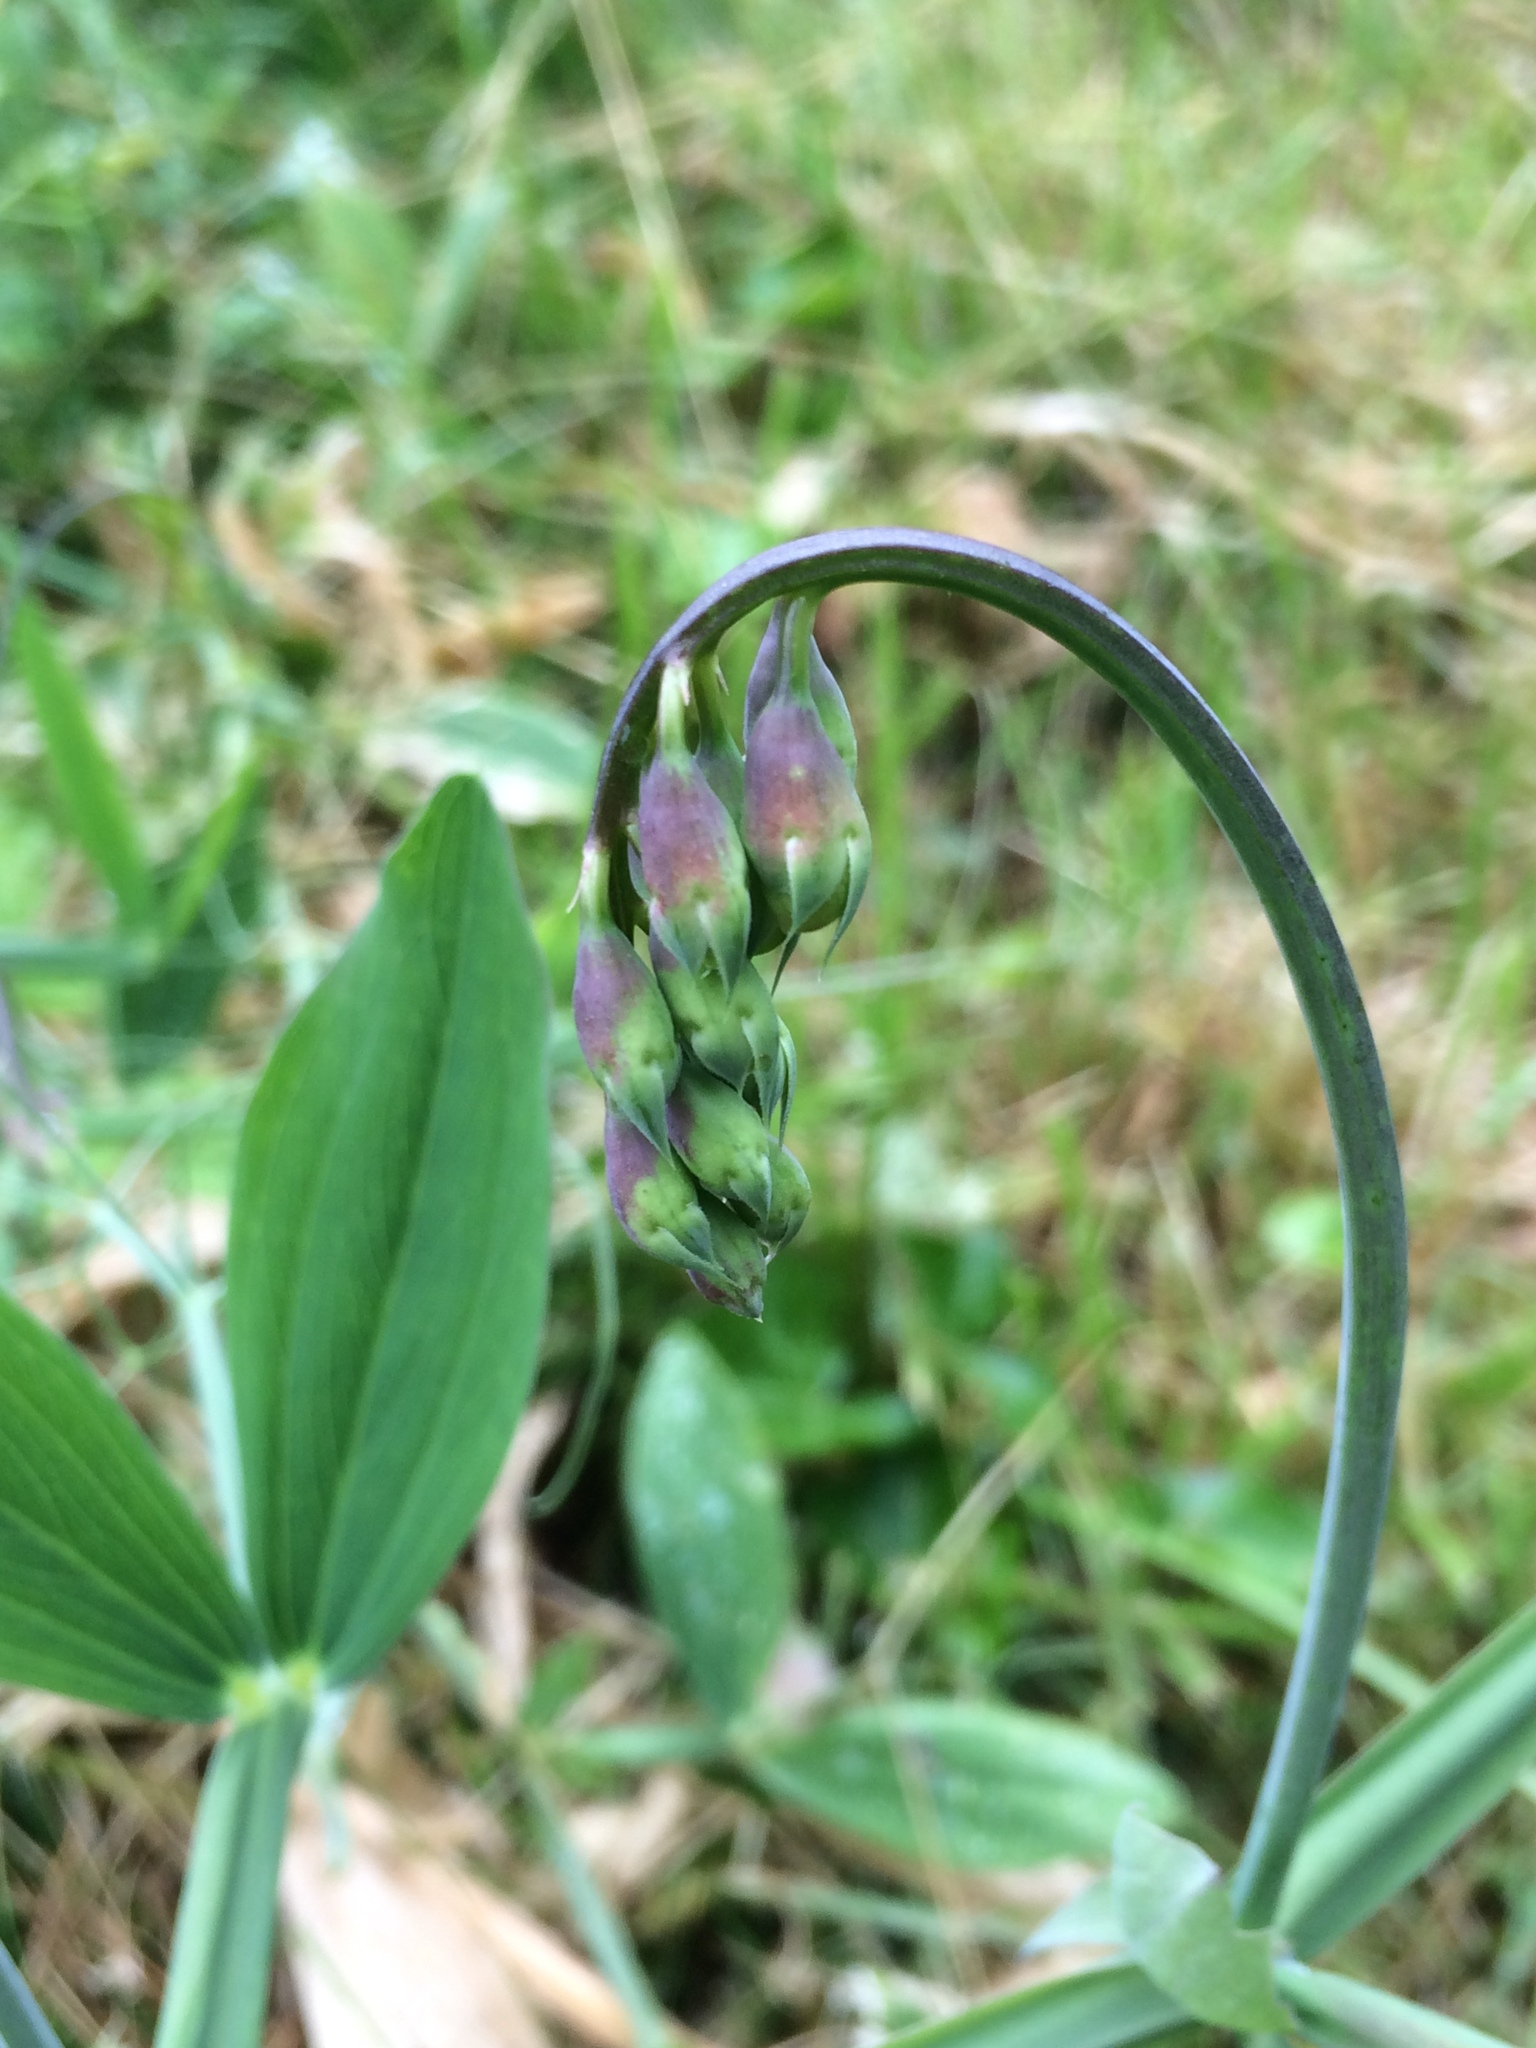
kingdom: Plantae
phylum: Tracheophyta
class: Magnoliopsida
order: Fabales
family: Fabaceae
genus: Lathyrus
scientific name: Lathyrus latifolius
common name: Perennial pea
